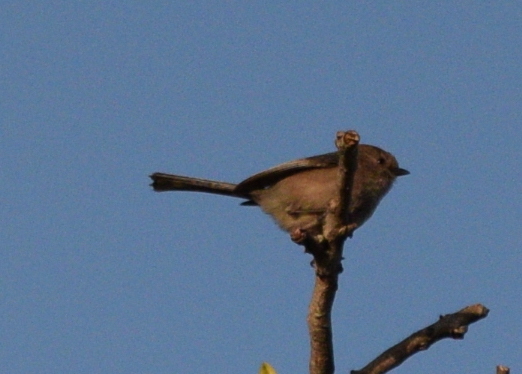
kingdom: Animalia
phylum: Chordata
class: Aves
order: Passeriformes
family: Aegithalidae
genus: Psaltriparus
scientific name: Psaltriparus minimus
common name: American bushtit
